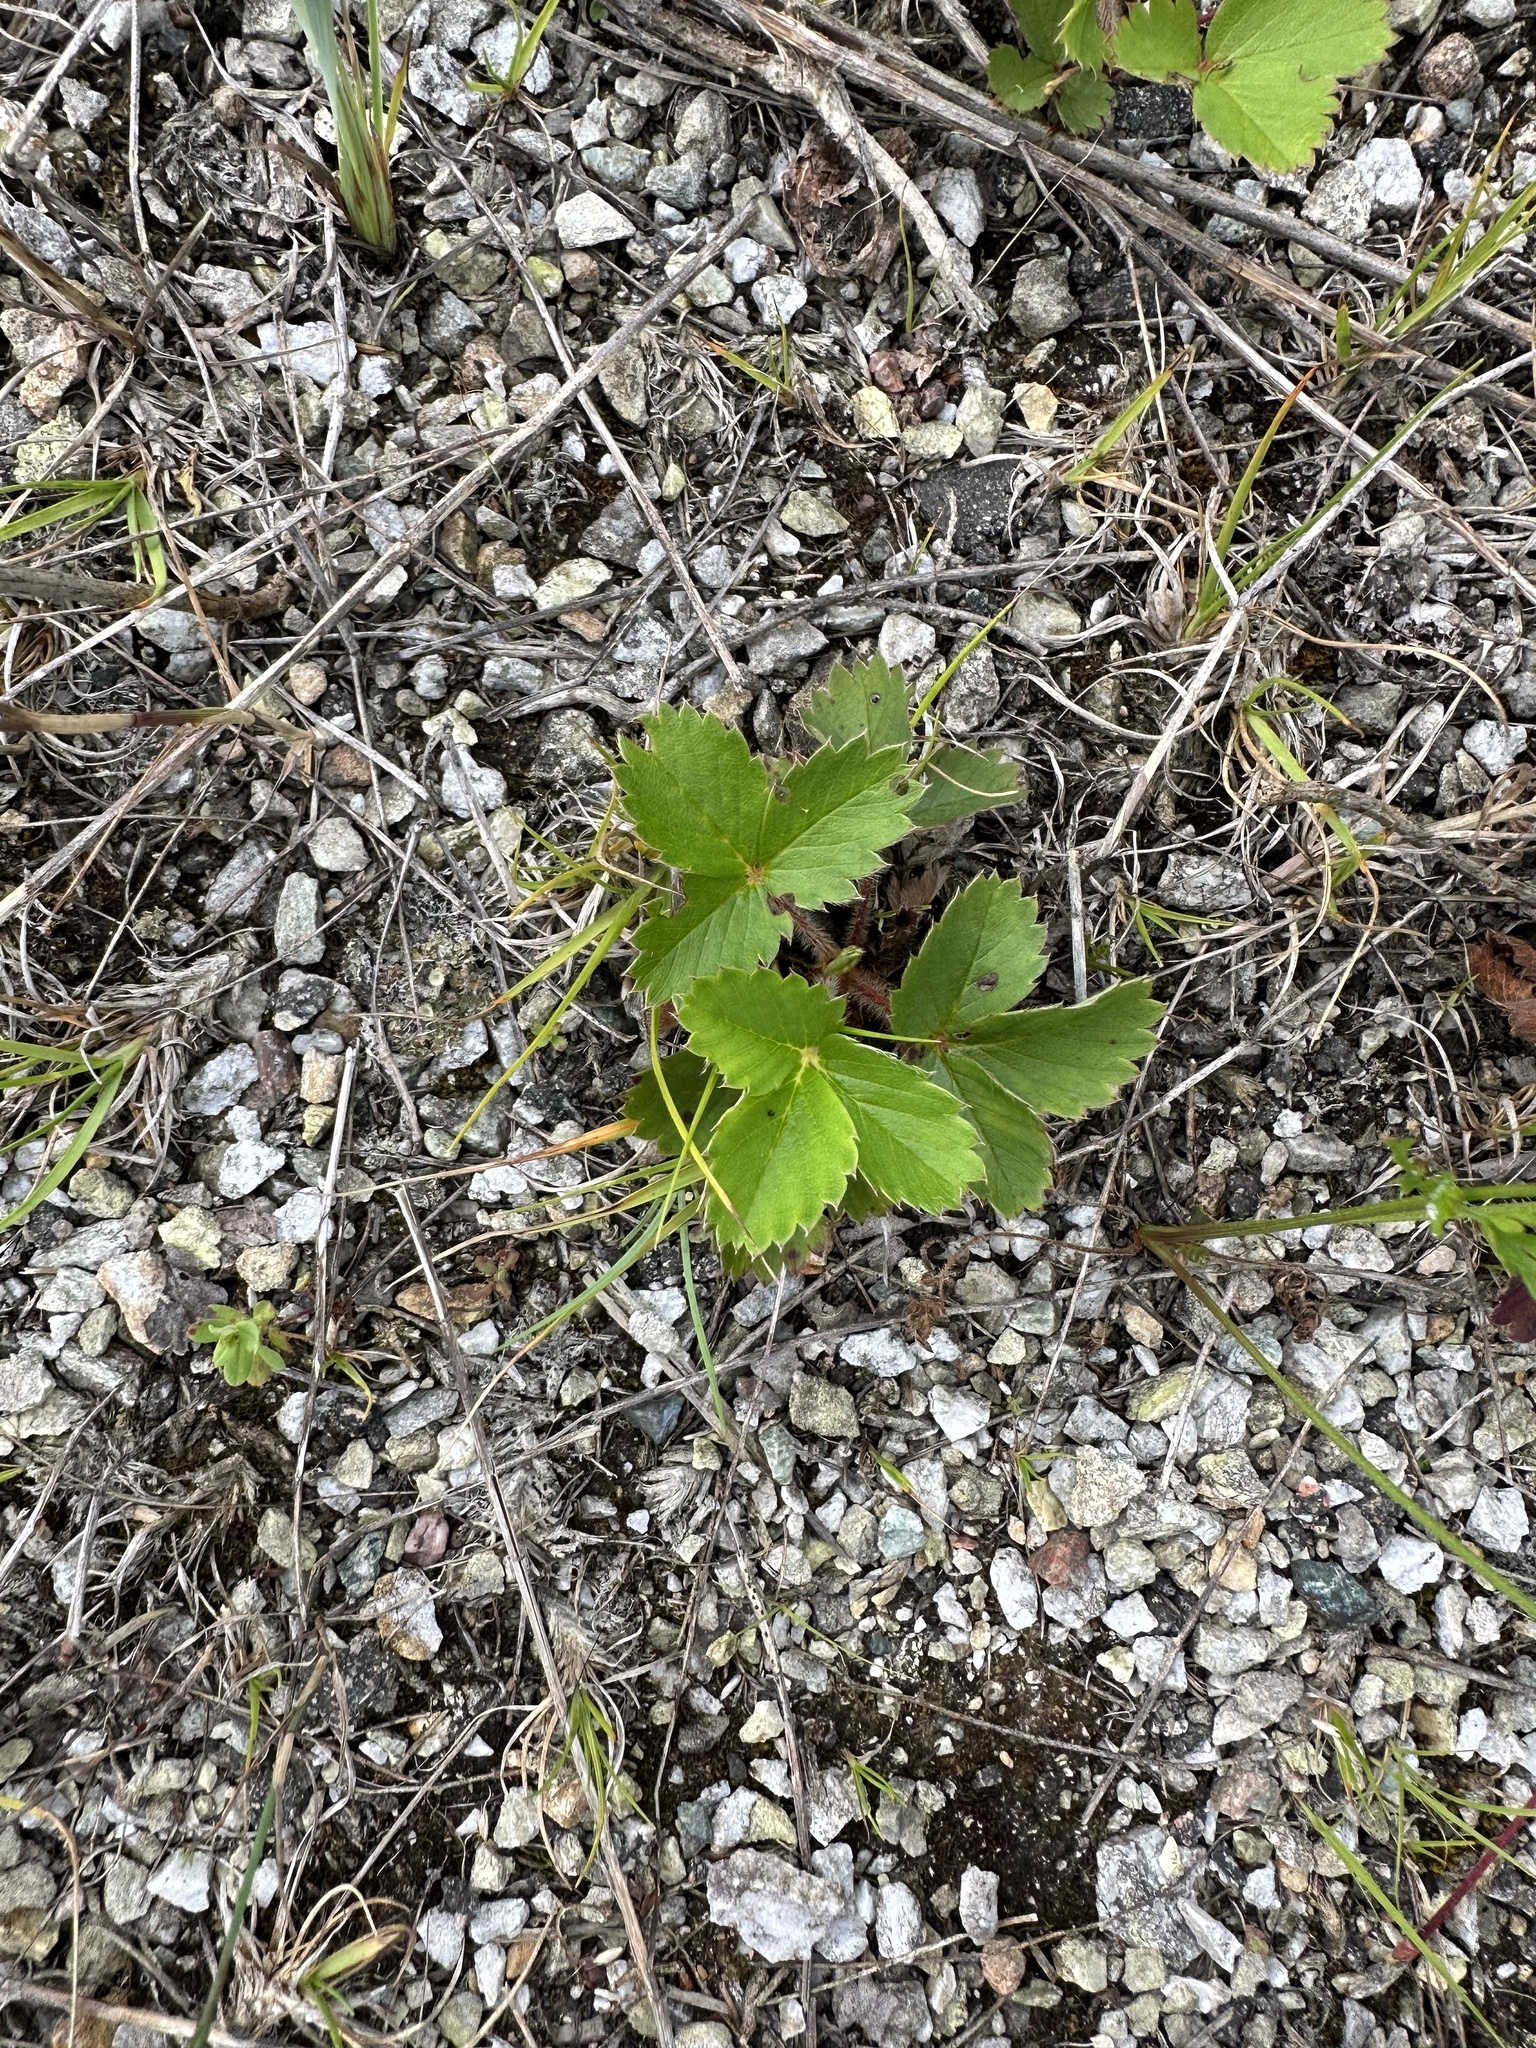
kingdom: Plantae
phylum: Tracheophyta
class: Magnoliopsida
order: Rosales
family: Rosaceae
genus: Fragaria
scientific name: Fragaria virginiana
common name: Thickleaved wild strawberry
